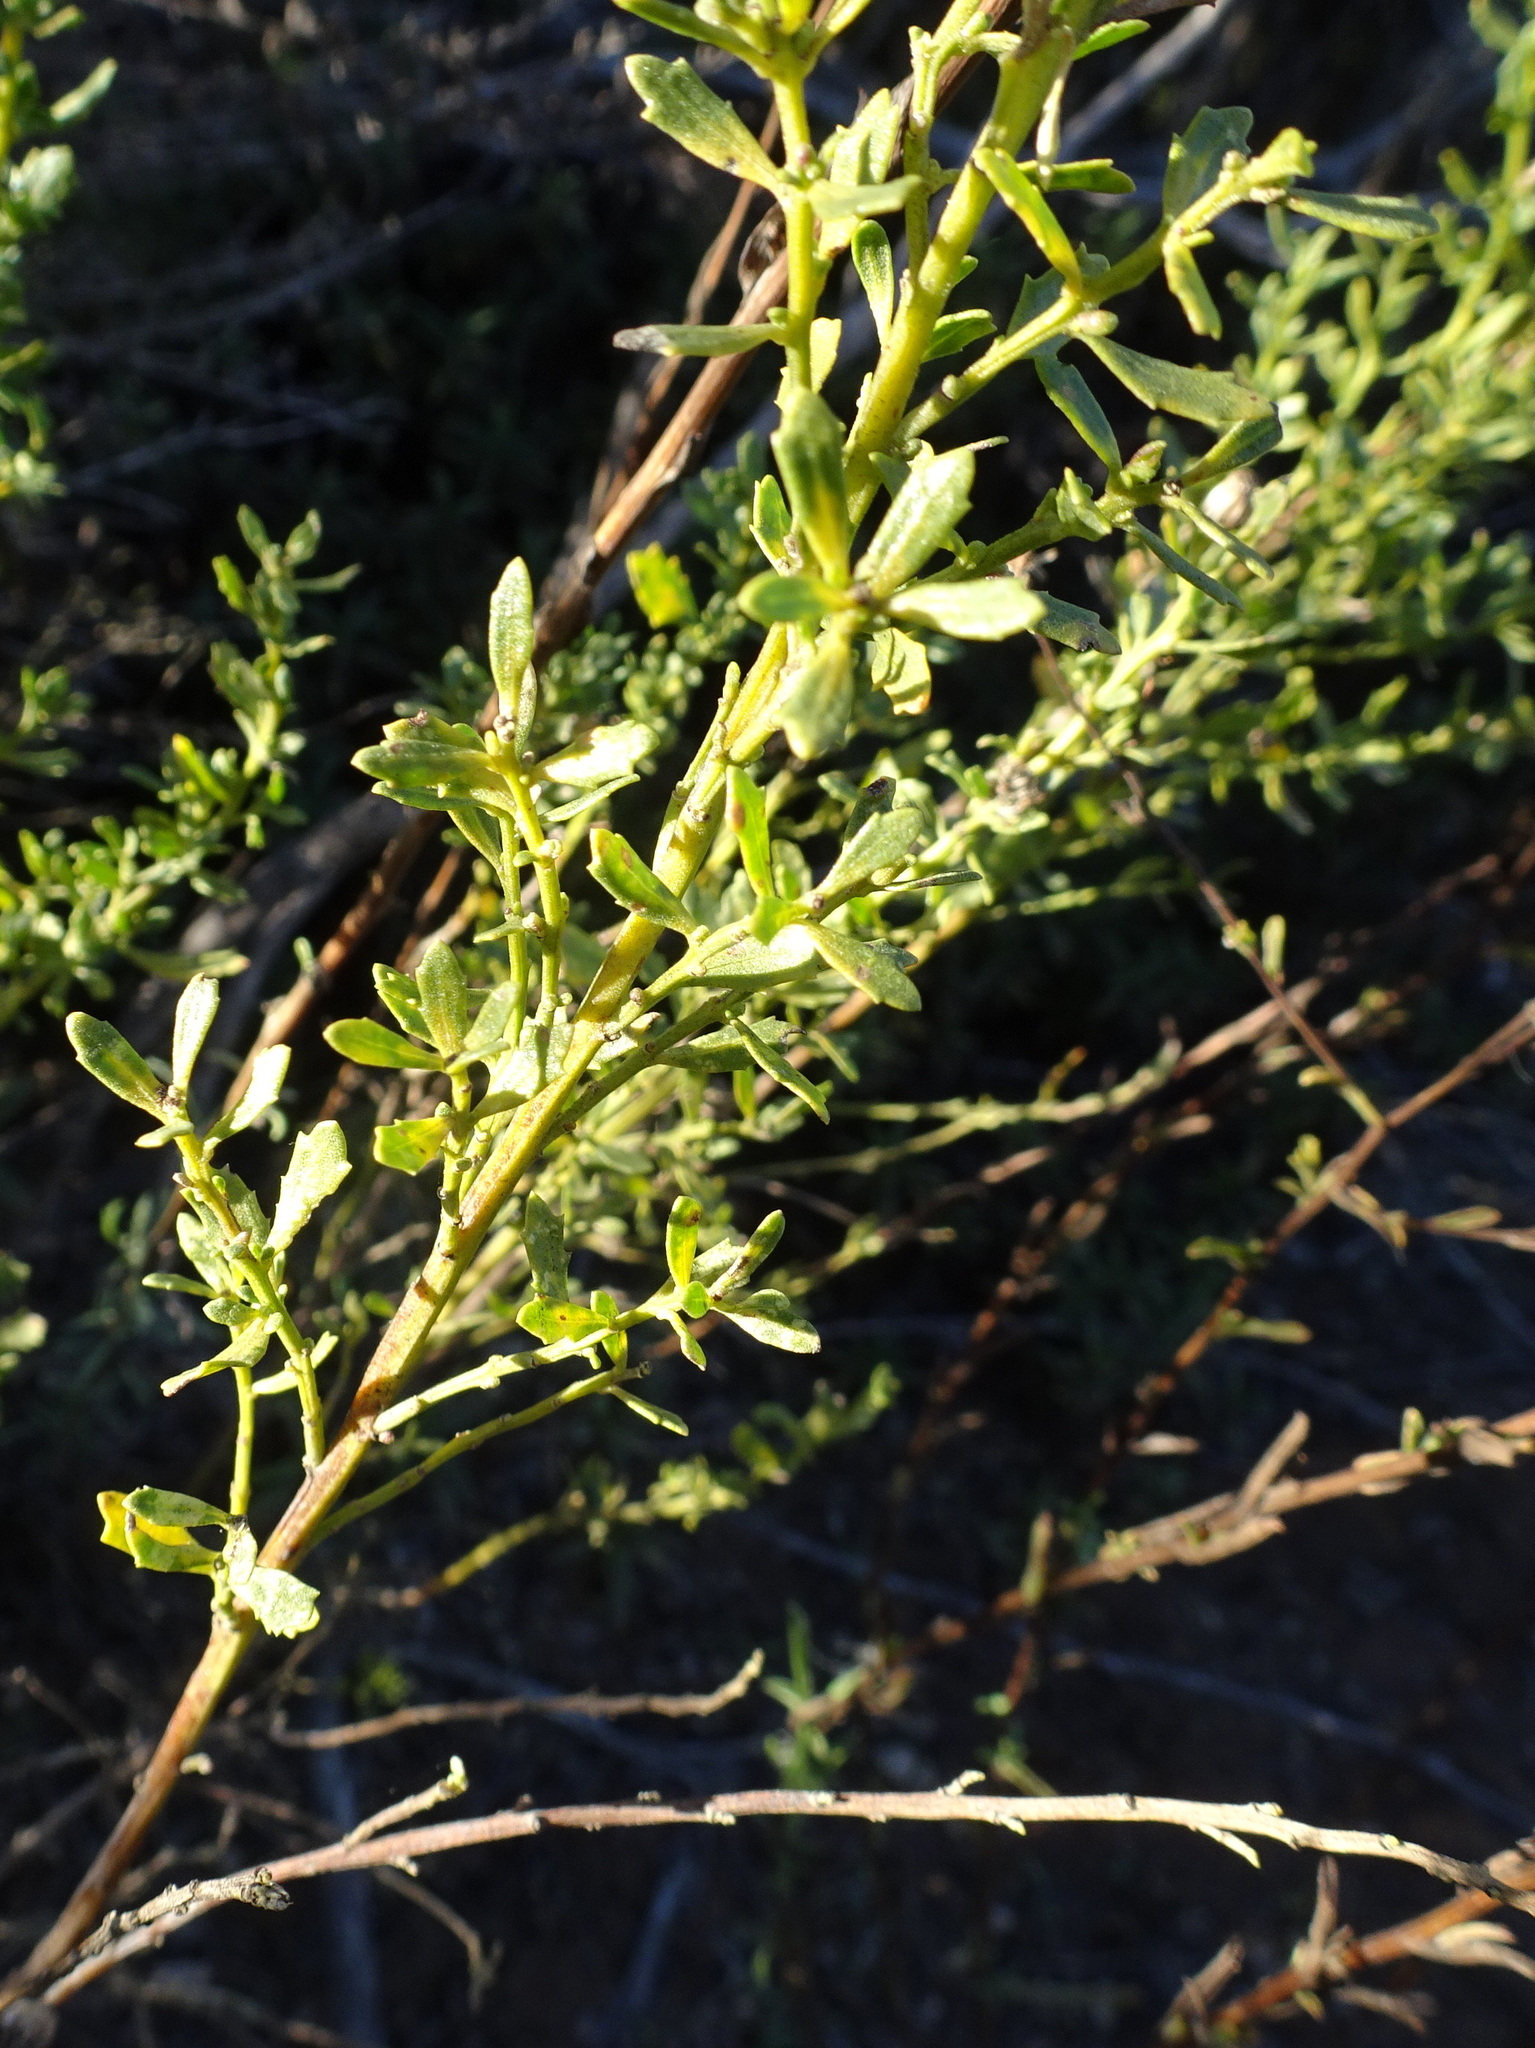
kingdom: Plantae
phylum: Tracheophyta
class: Magnoliopsida
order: Asterales
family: Asteraceae
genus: Baccharis
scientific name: Baccharis pilularis
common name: Coyotebrush
